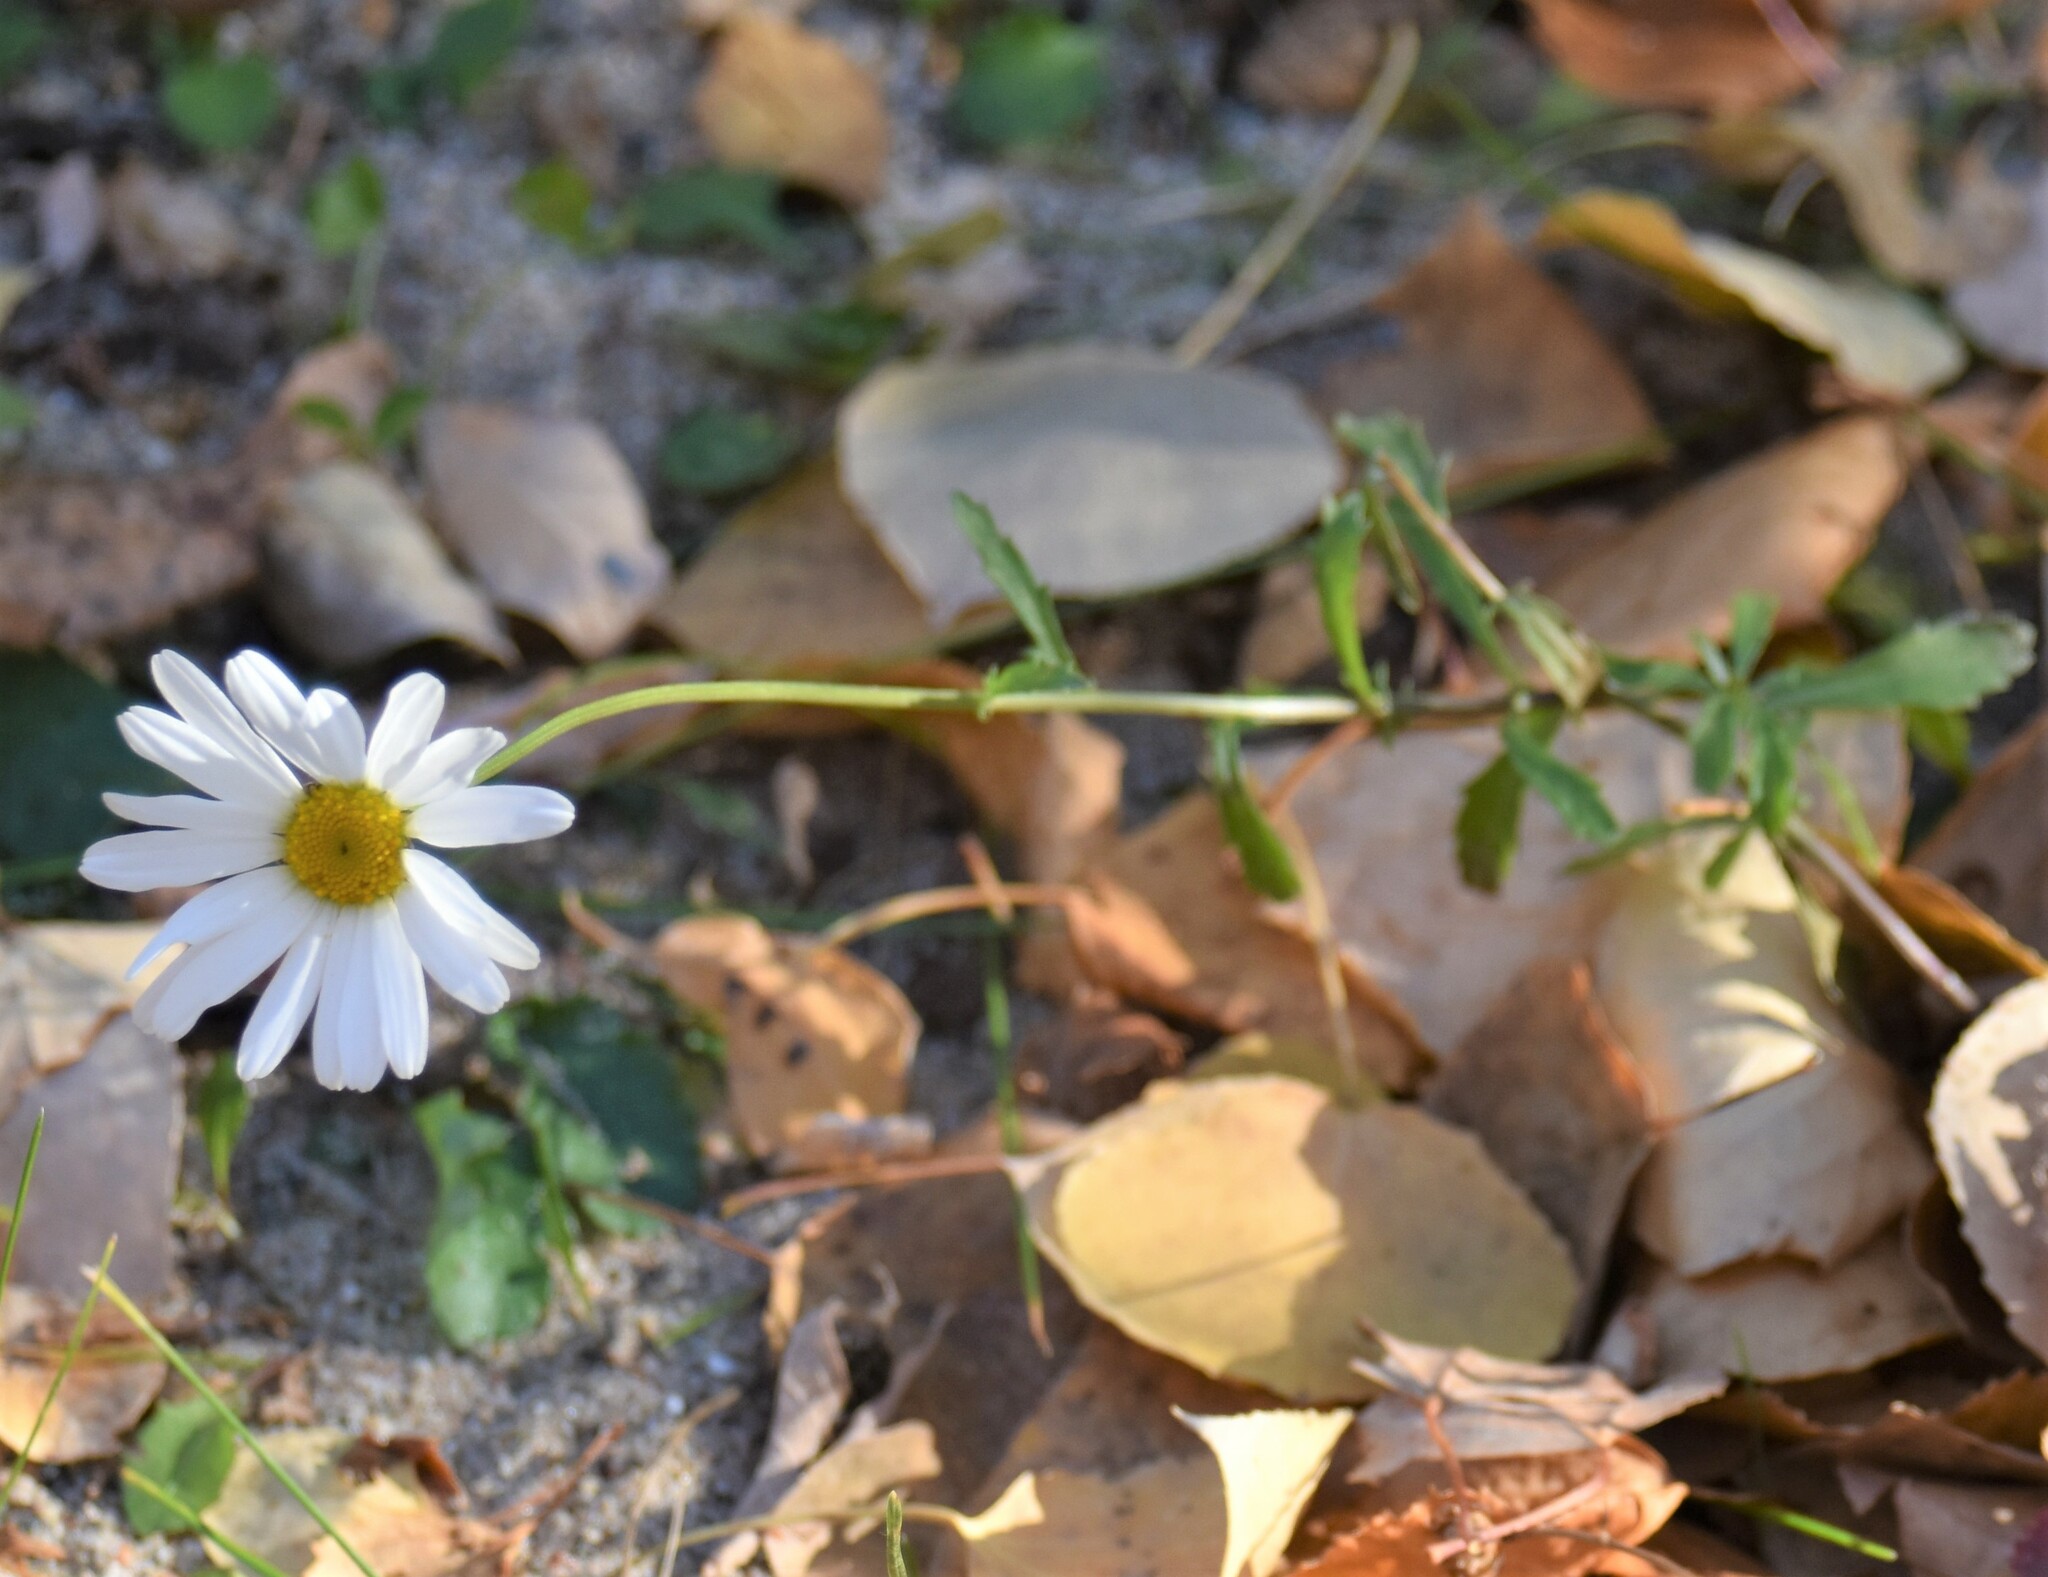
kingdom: Plantae
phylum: Tracheophyta
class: Magnoliopsida
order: Asterales
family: Asteraceae
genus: Leucanthemum
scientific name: Leucanthemum vulgare
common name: Oxeye daisy
